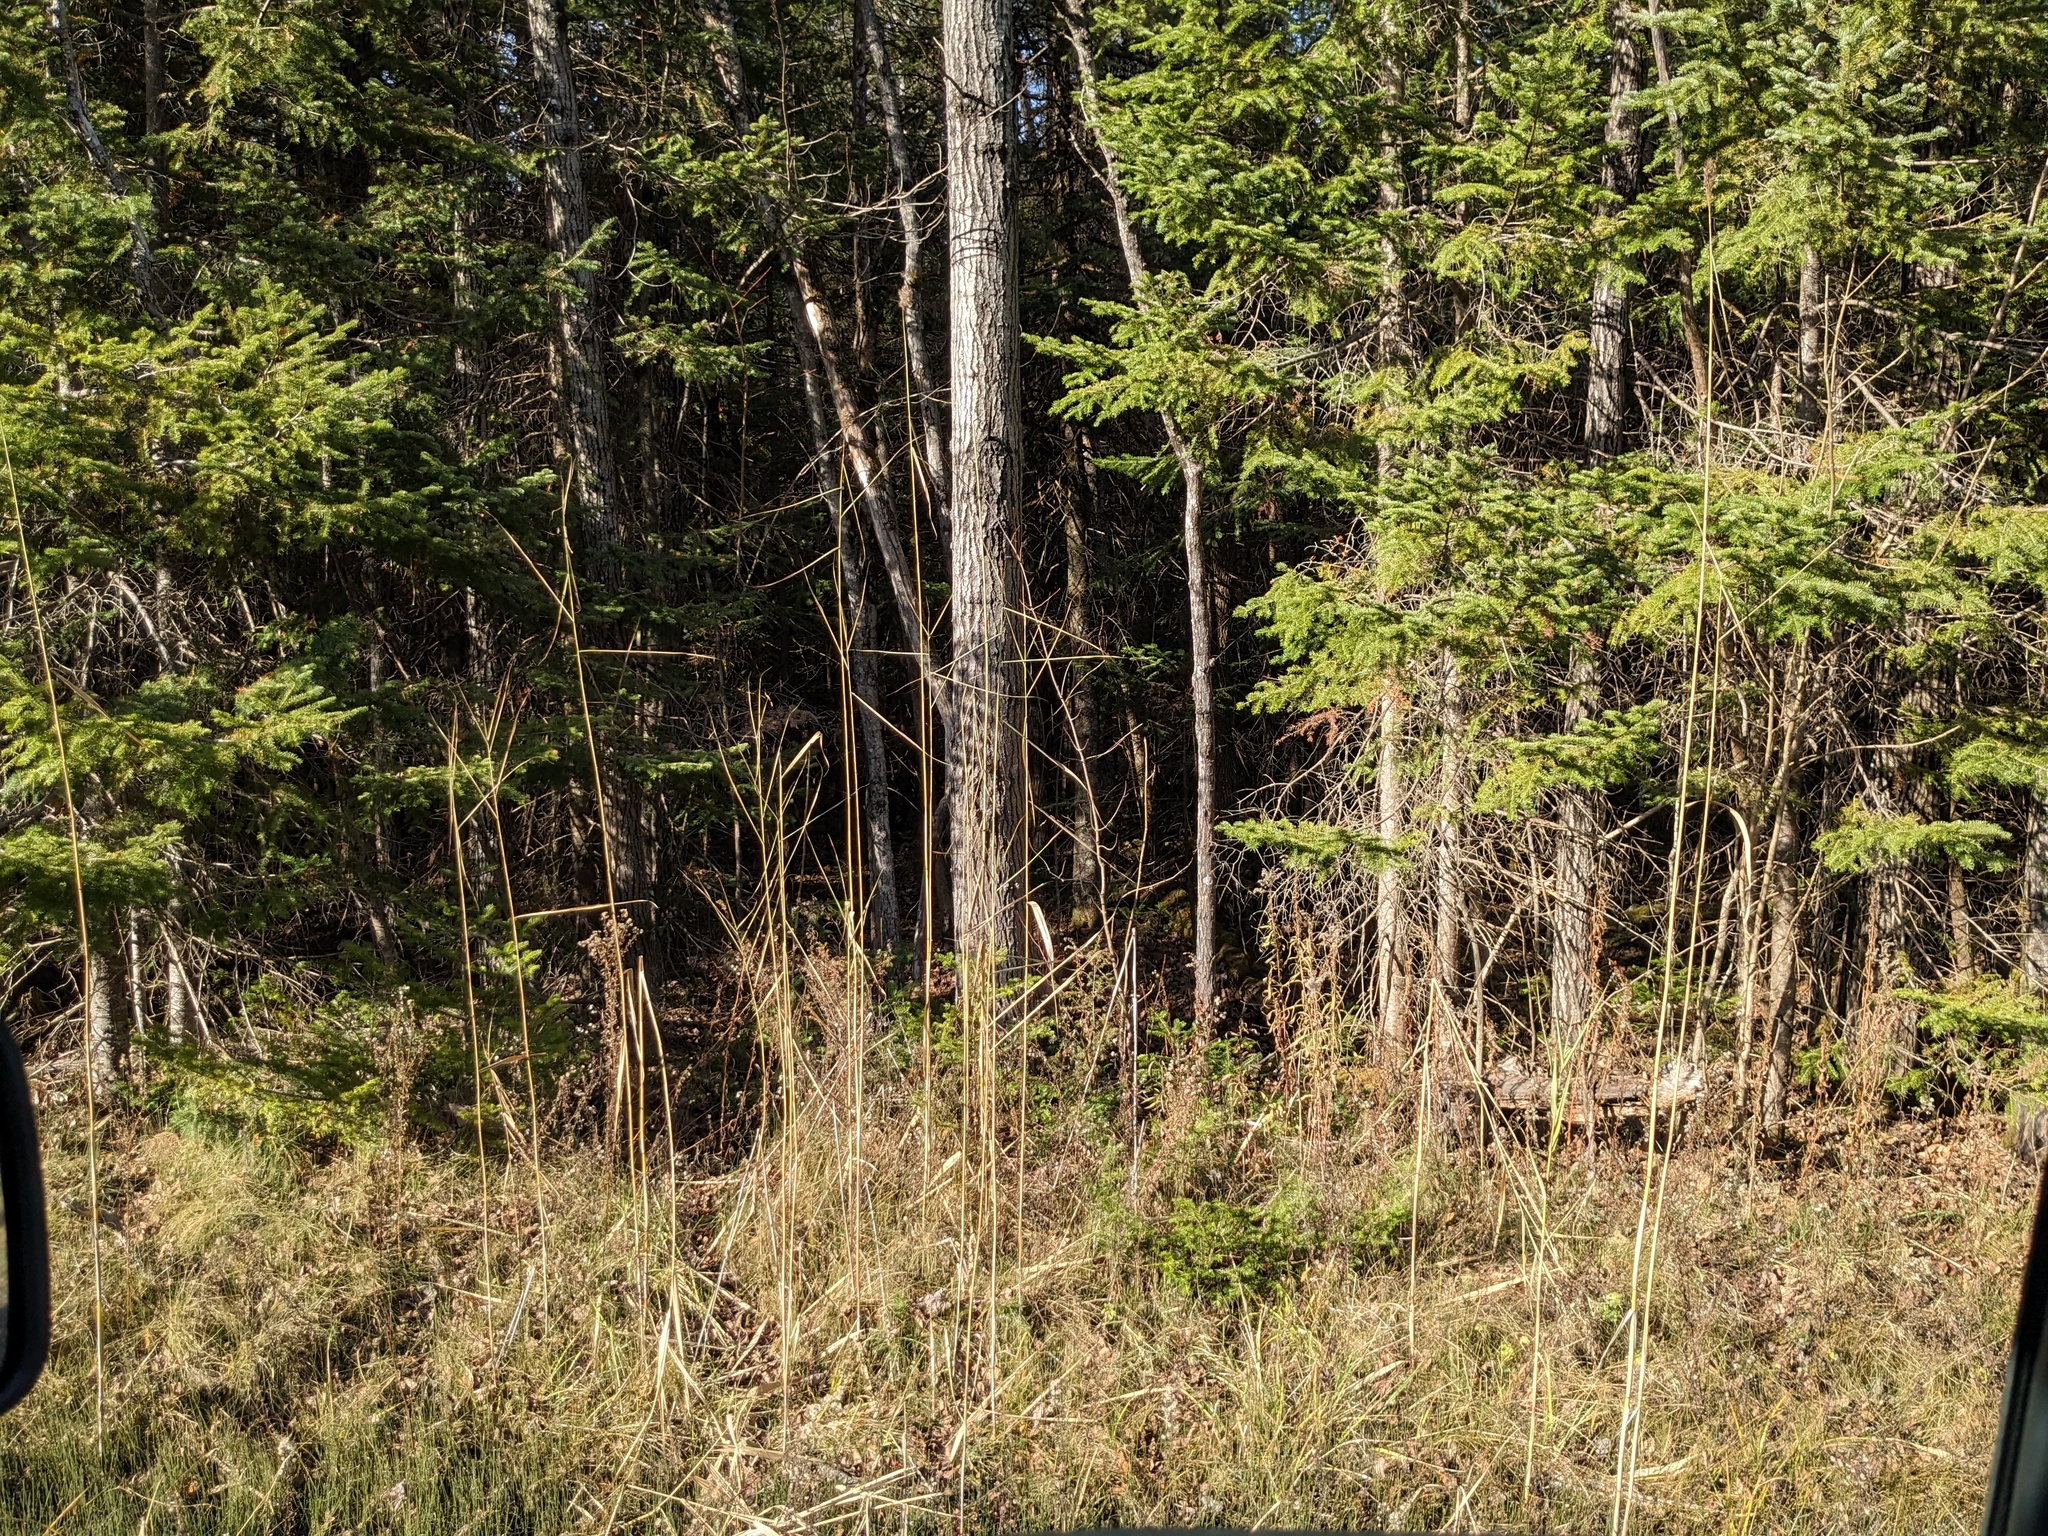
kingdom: Plantae
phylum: Tracheophyta
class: Liliopsida
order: Poales
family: Poaceae
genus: Phragmites
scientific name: Phragmites australis
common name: Common reed
